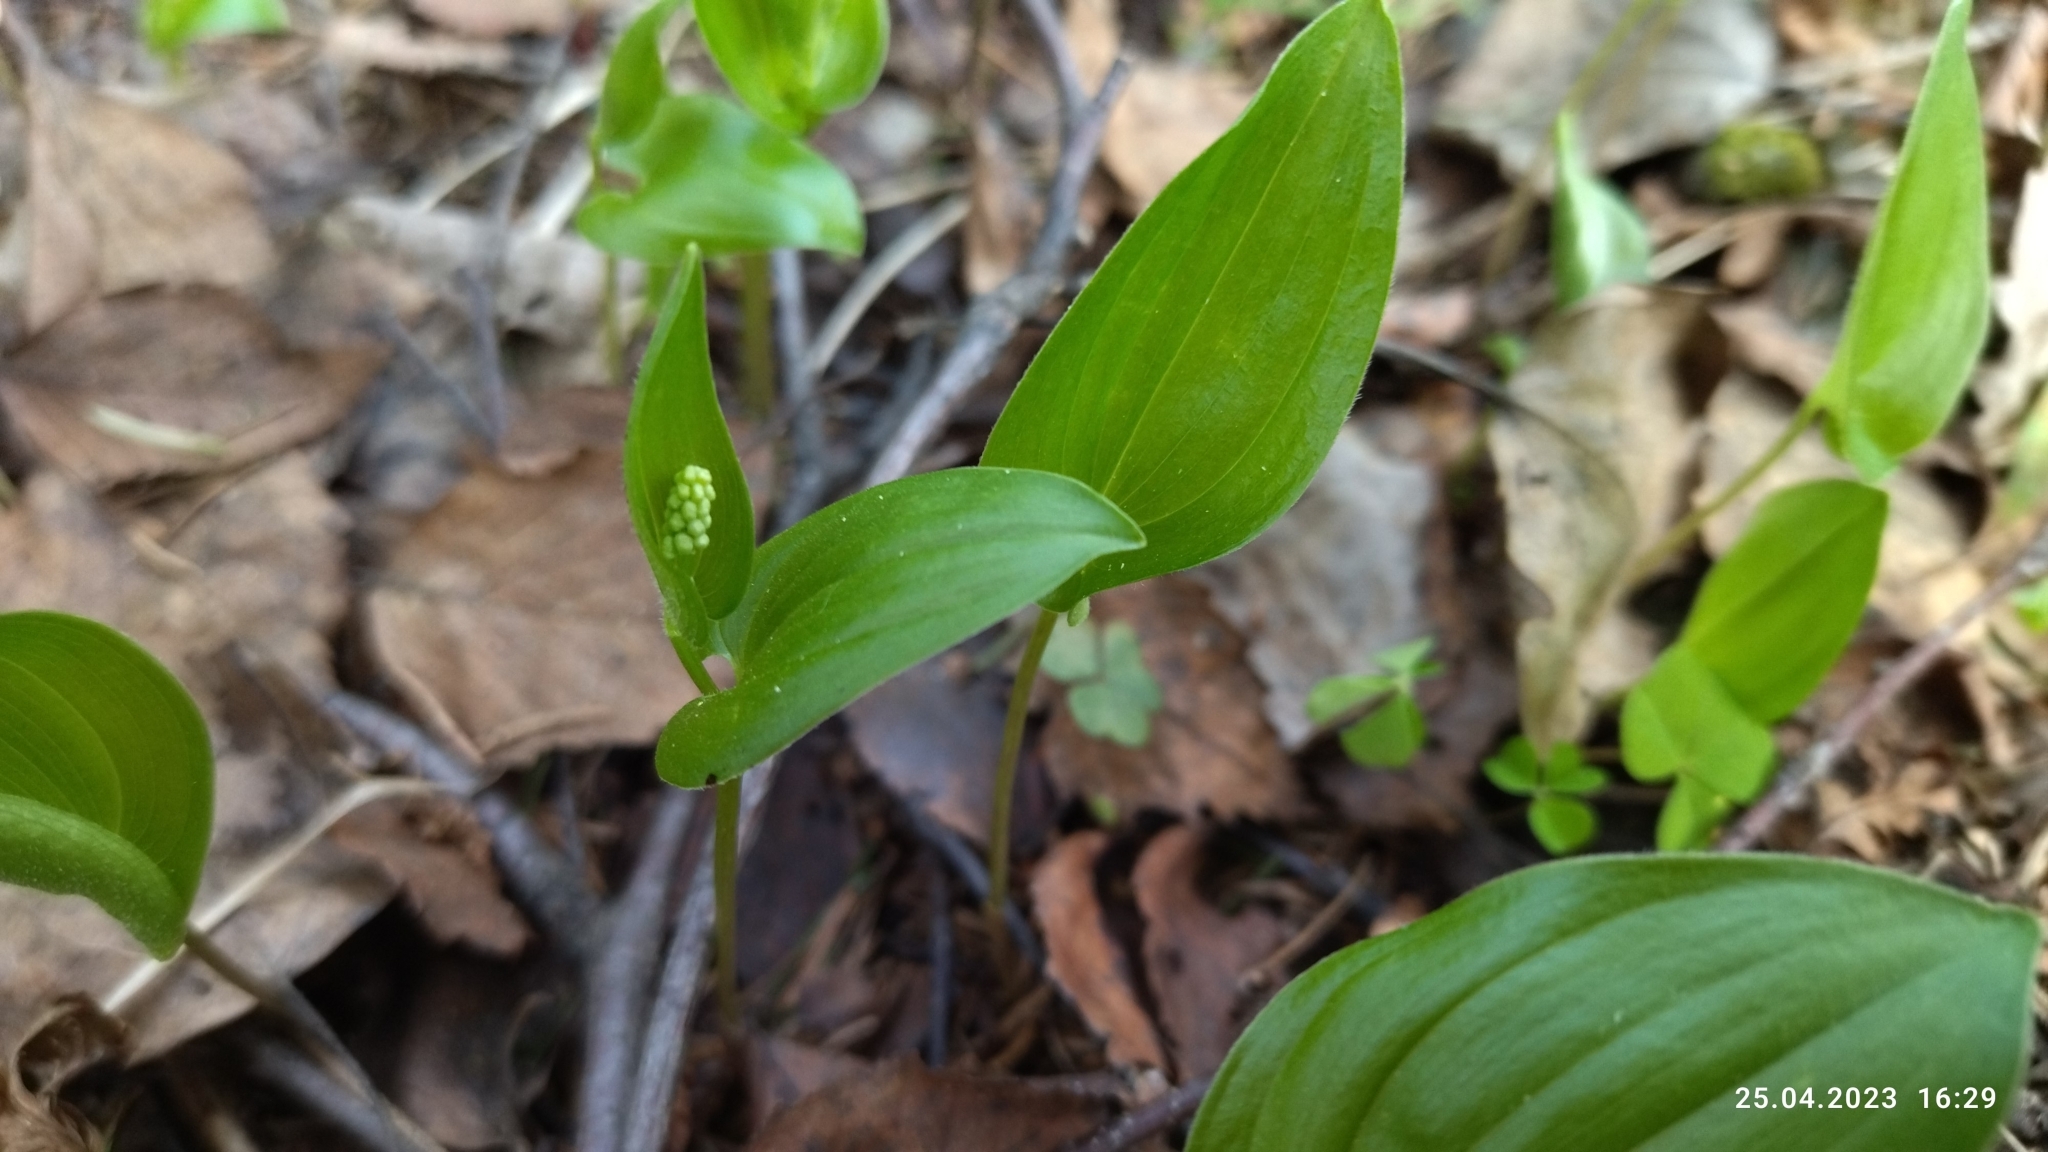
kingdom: Plantae
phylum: Tracheophyta
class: Liliopsida
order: Asparagales
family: Asparagaceae
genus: Maianthemum
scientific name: Maianthemum bifolium
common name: May lily
